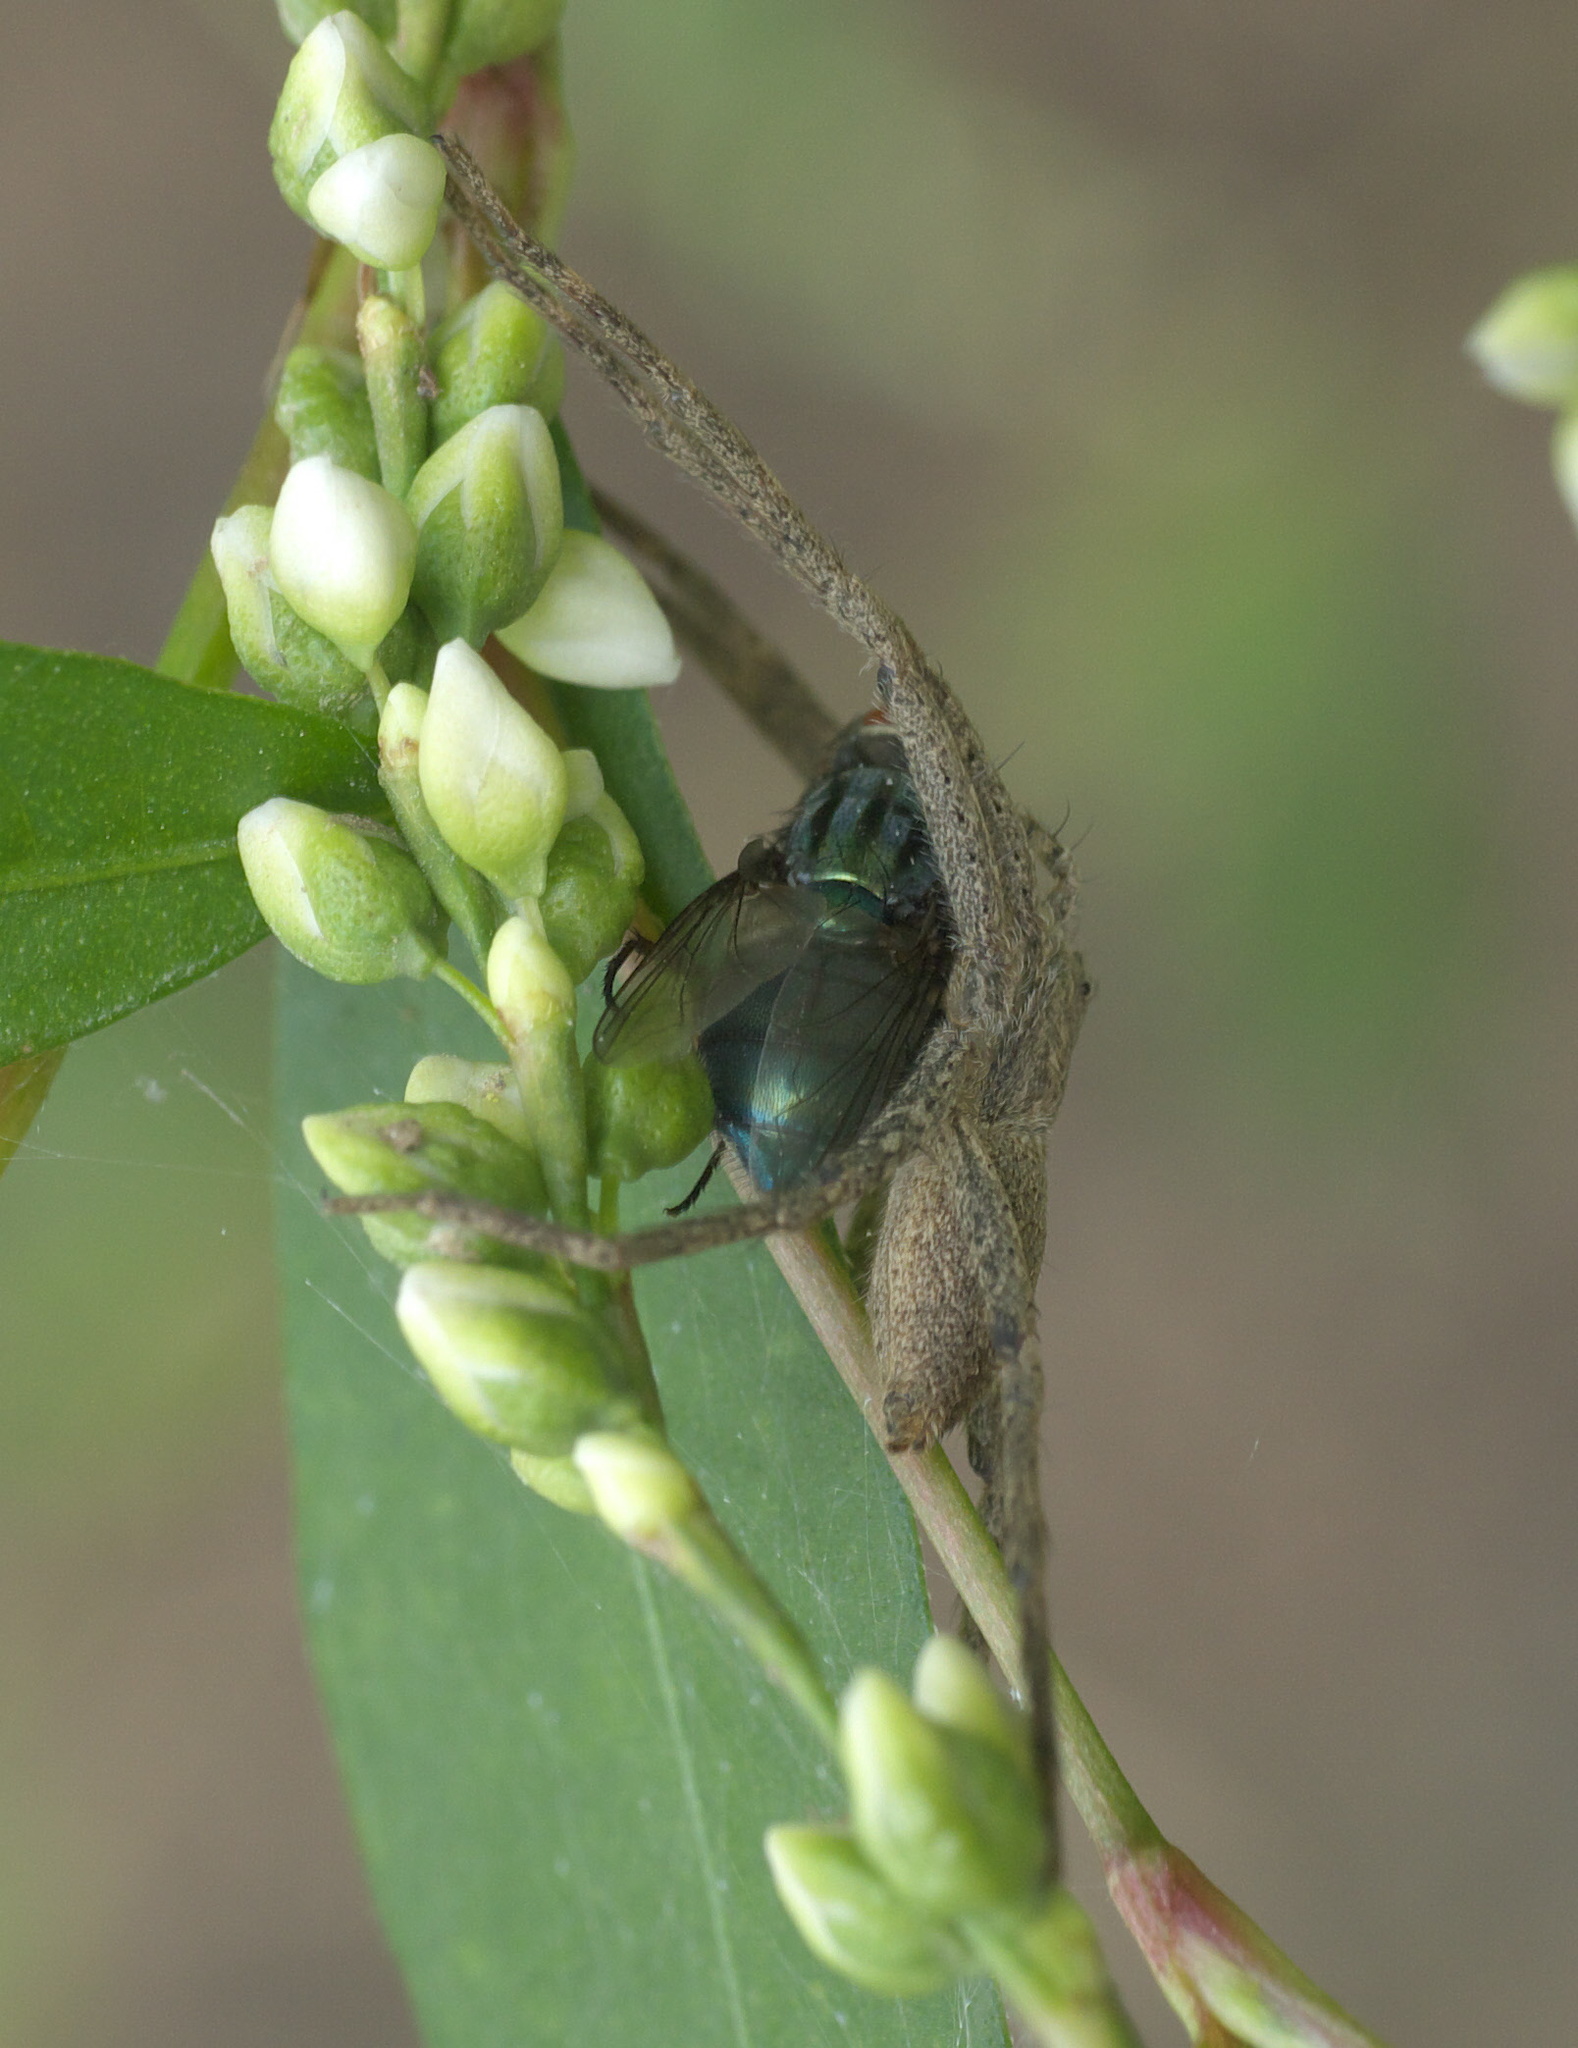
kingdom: Animalia
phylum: Arthropoda
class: Arachnida
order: Araneae
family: Pisauridae
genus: Pisaurina
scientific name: Pisaurina mira
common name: American nursery web spider
